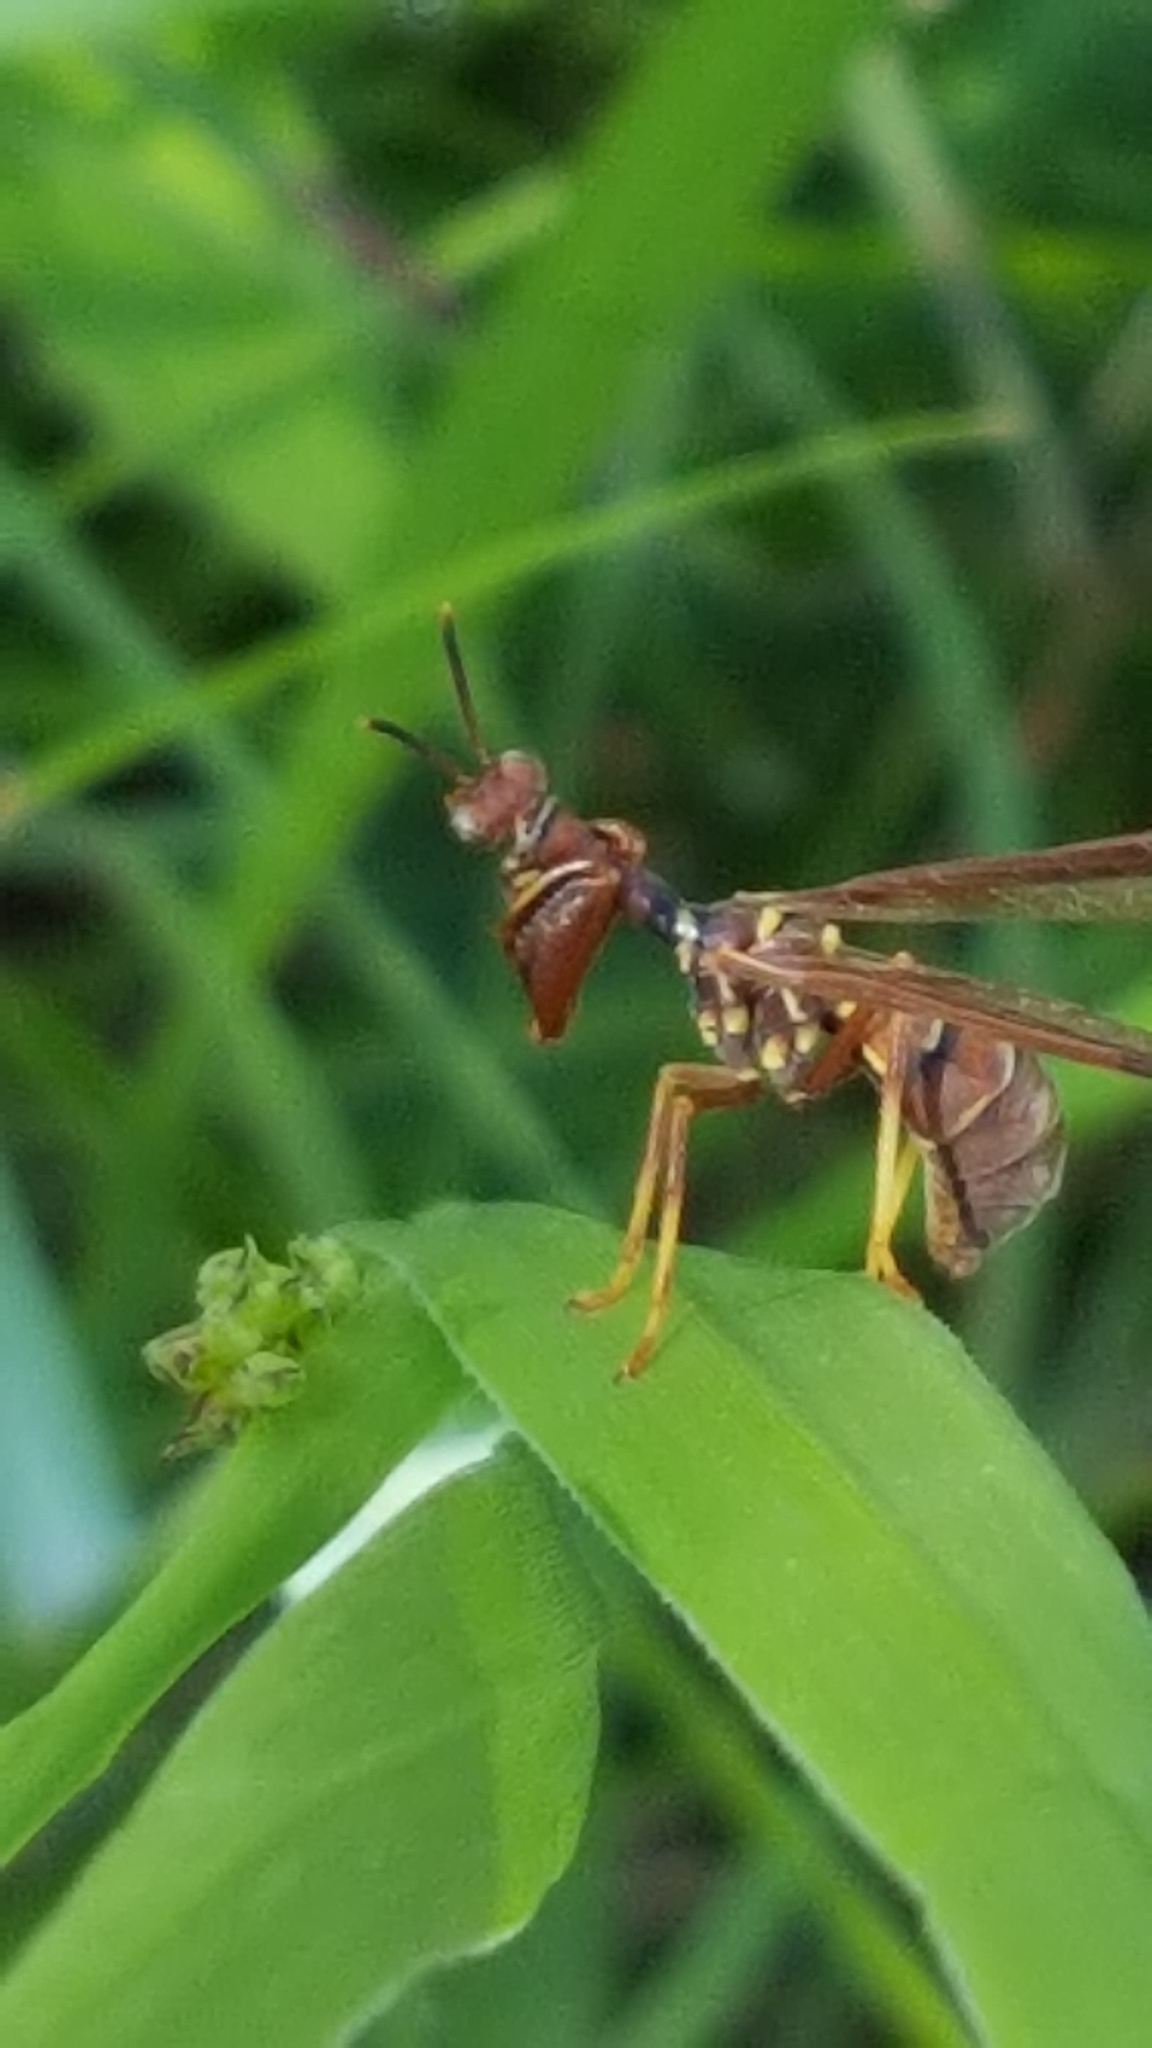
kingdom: Animalia
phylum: Arthropoda
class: Insecta
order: Neuroptera
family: Mantispidae
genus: Climaciella
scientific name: Climaciella brunnea
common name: Brown wasp mantidfly
